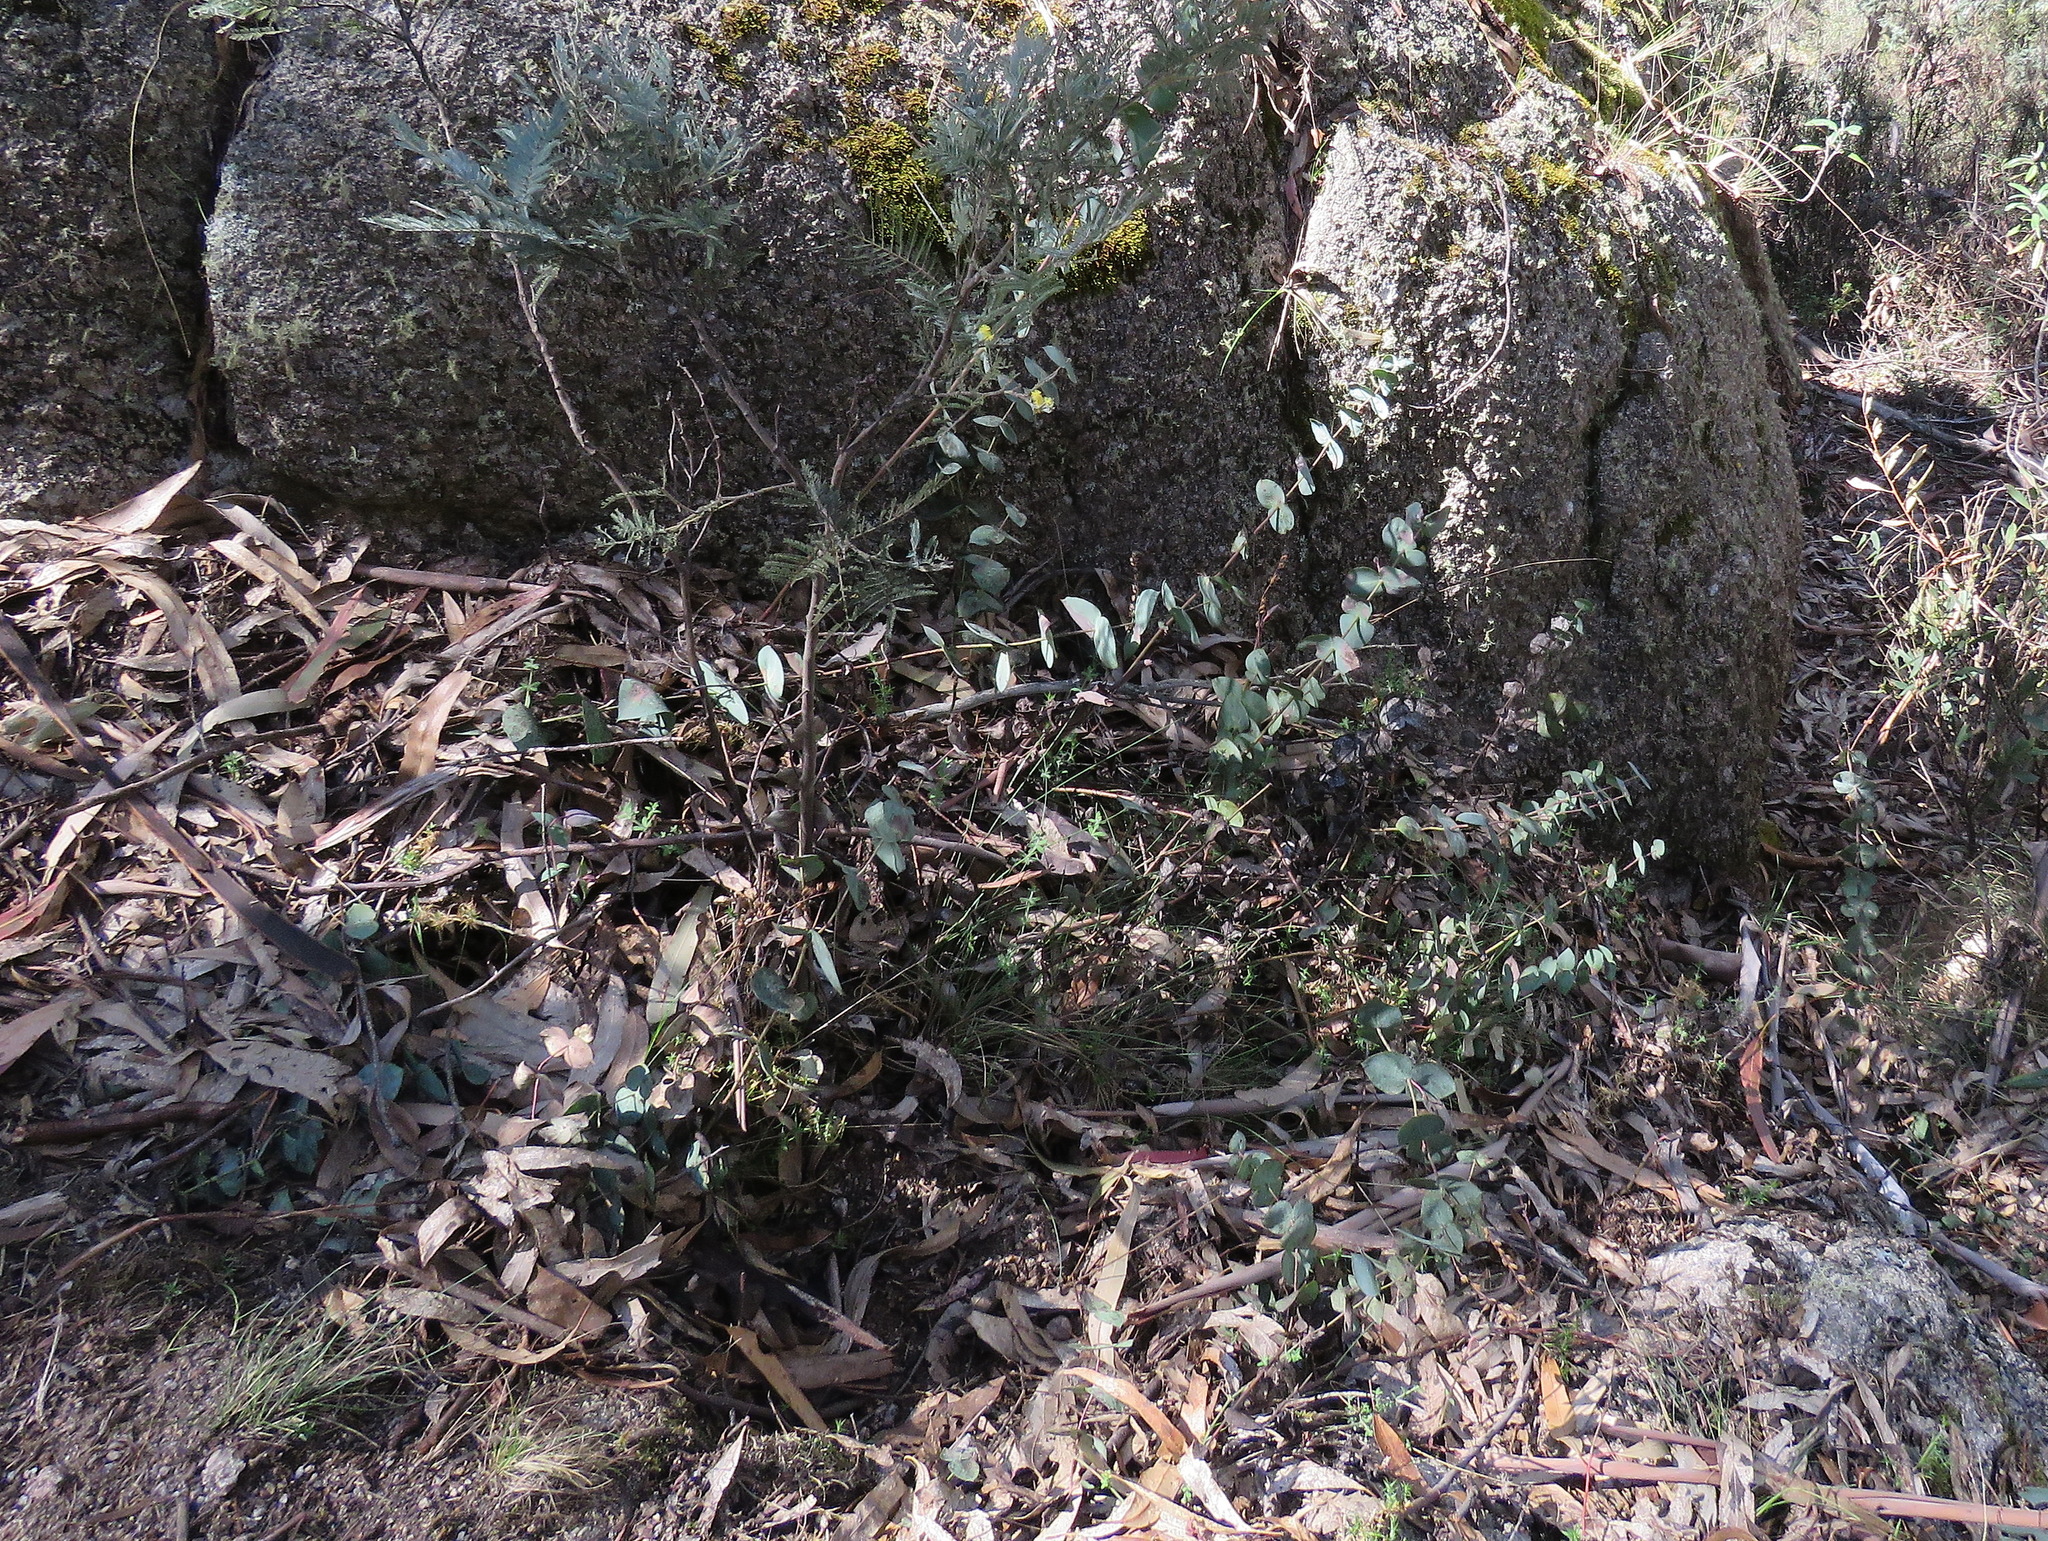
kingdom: Plantae
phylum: Tracheophyta
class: Magnoliopsida
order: Lamiales
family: Plantaginaceae
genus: Veronica
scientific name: Veronica perfoliata
